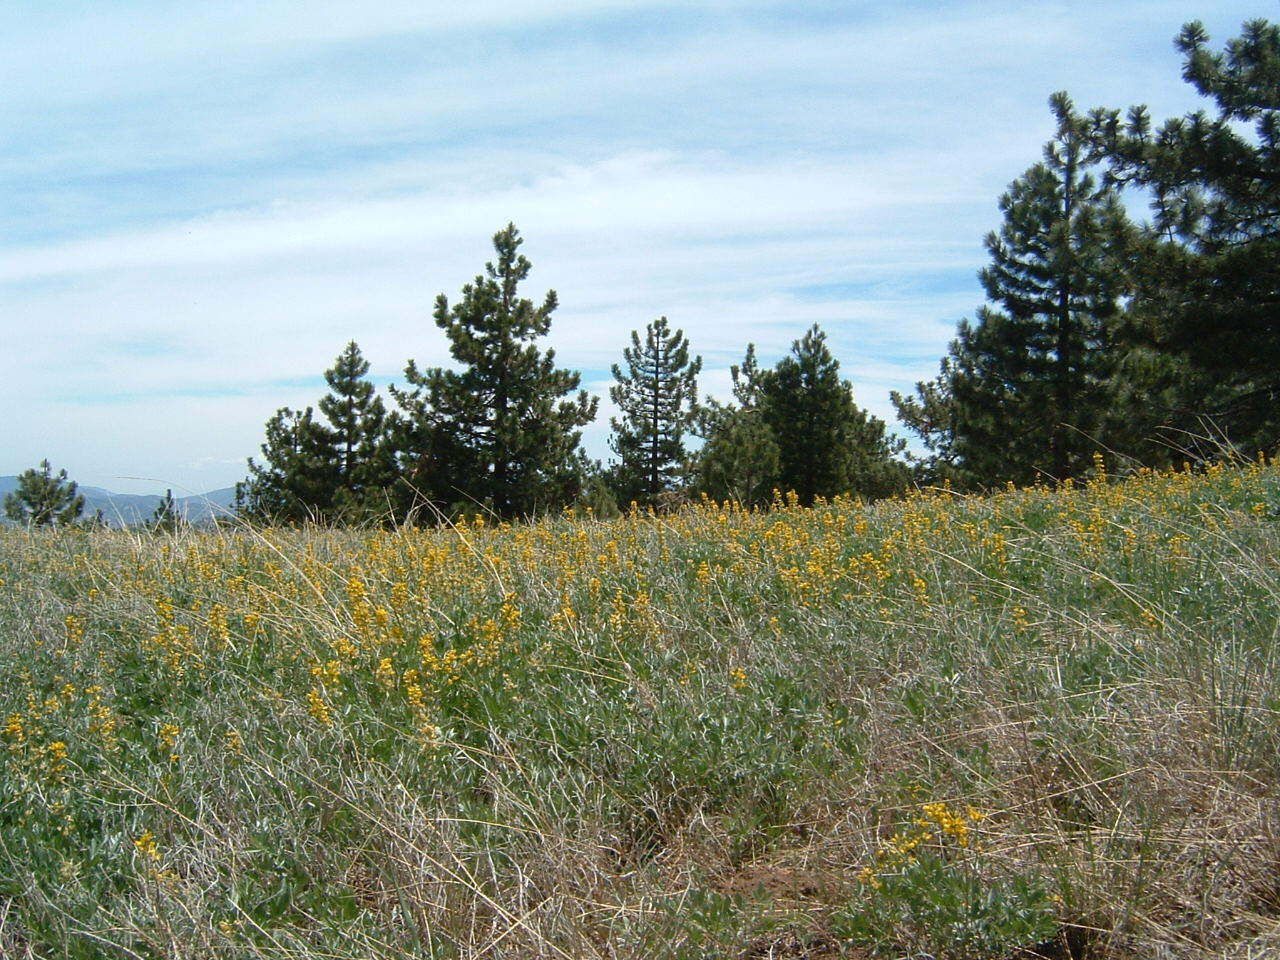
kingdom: Plantae
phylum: Tracheophyta
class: Magnoliopsida
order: Fabales
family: Fabaceae
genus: Thermopsis
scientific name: Thermopsis californica
